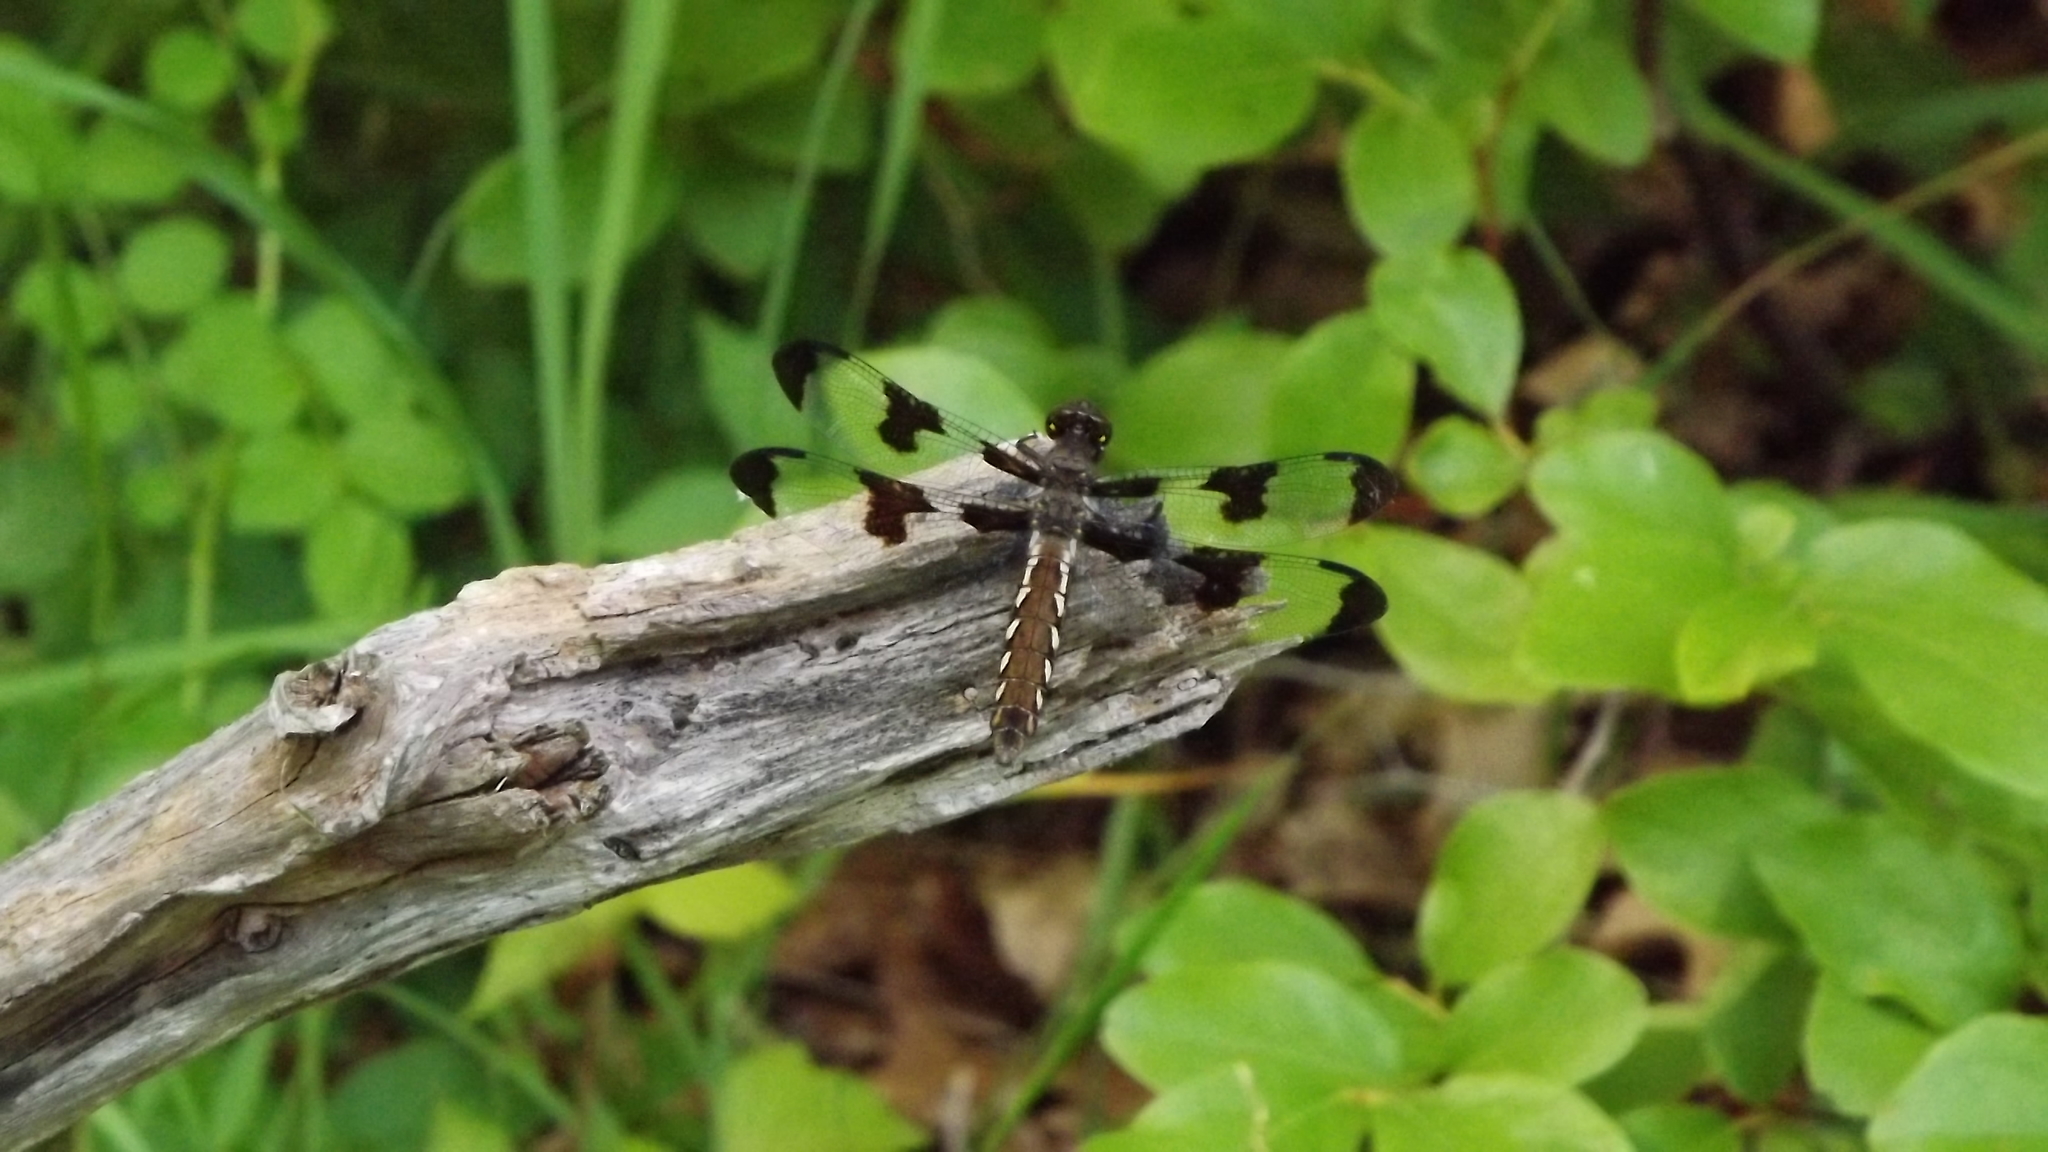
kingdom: Animalia
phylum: Arthropoda
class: Insecta
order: Odonata
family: Libellulidae
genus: Plathemis
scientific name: Plathemis lydia
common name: Common whitetail
